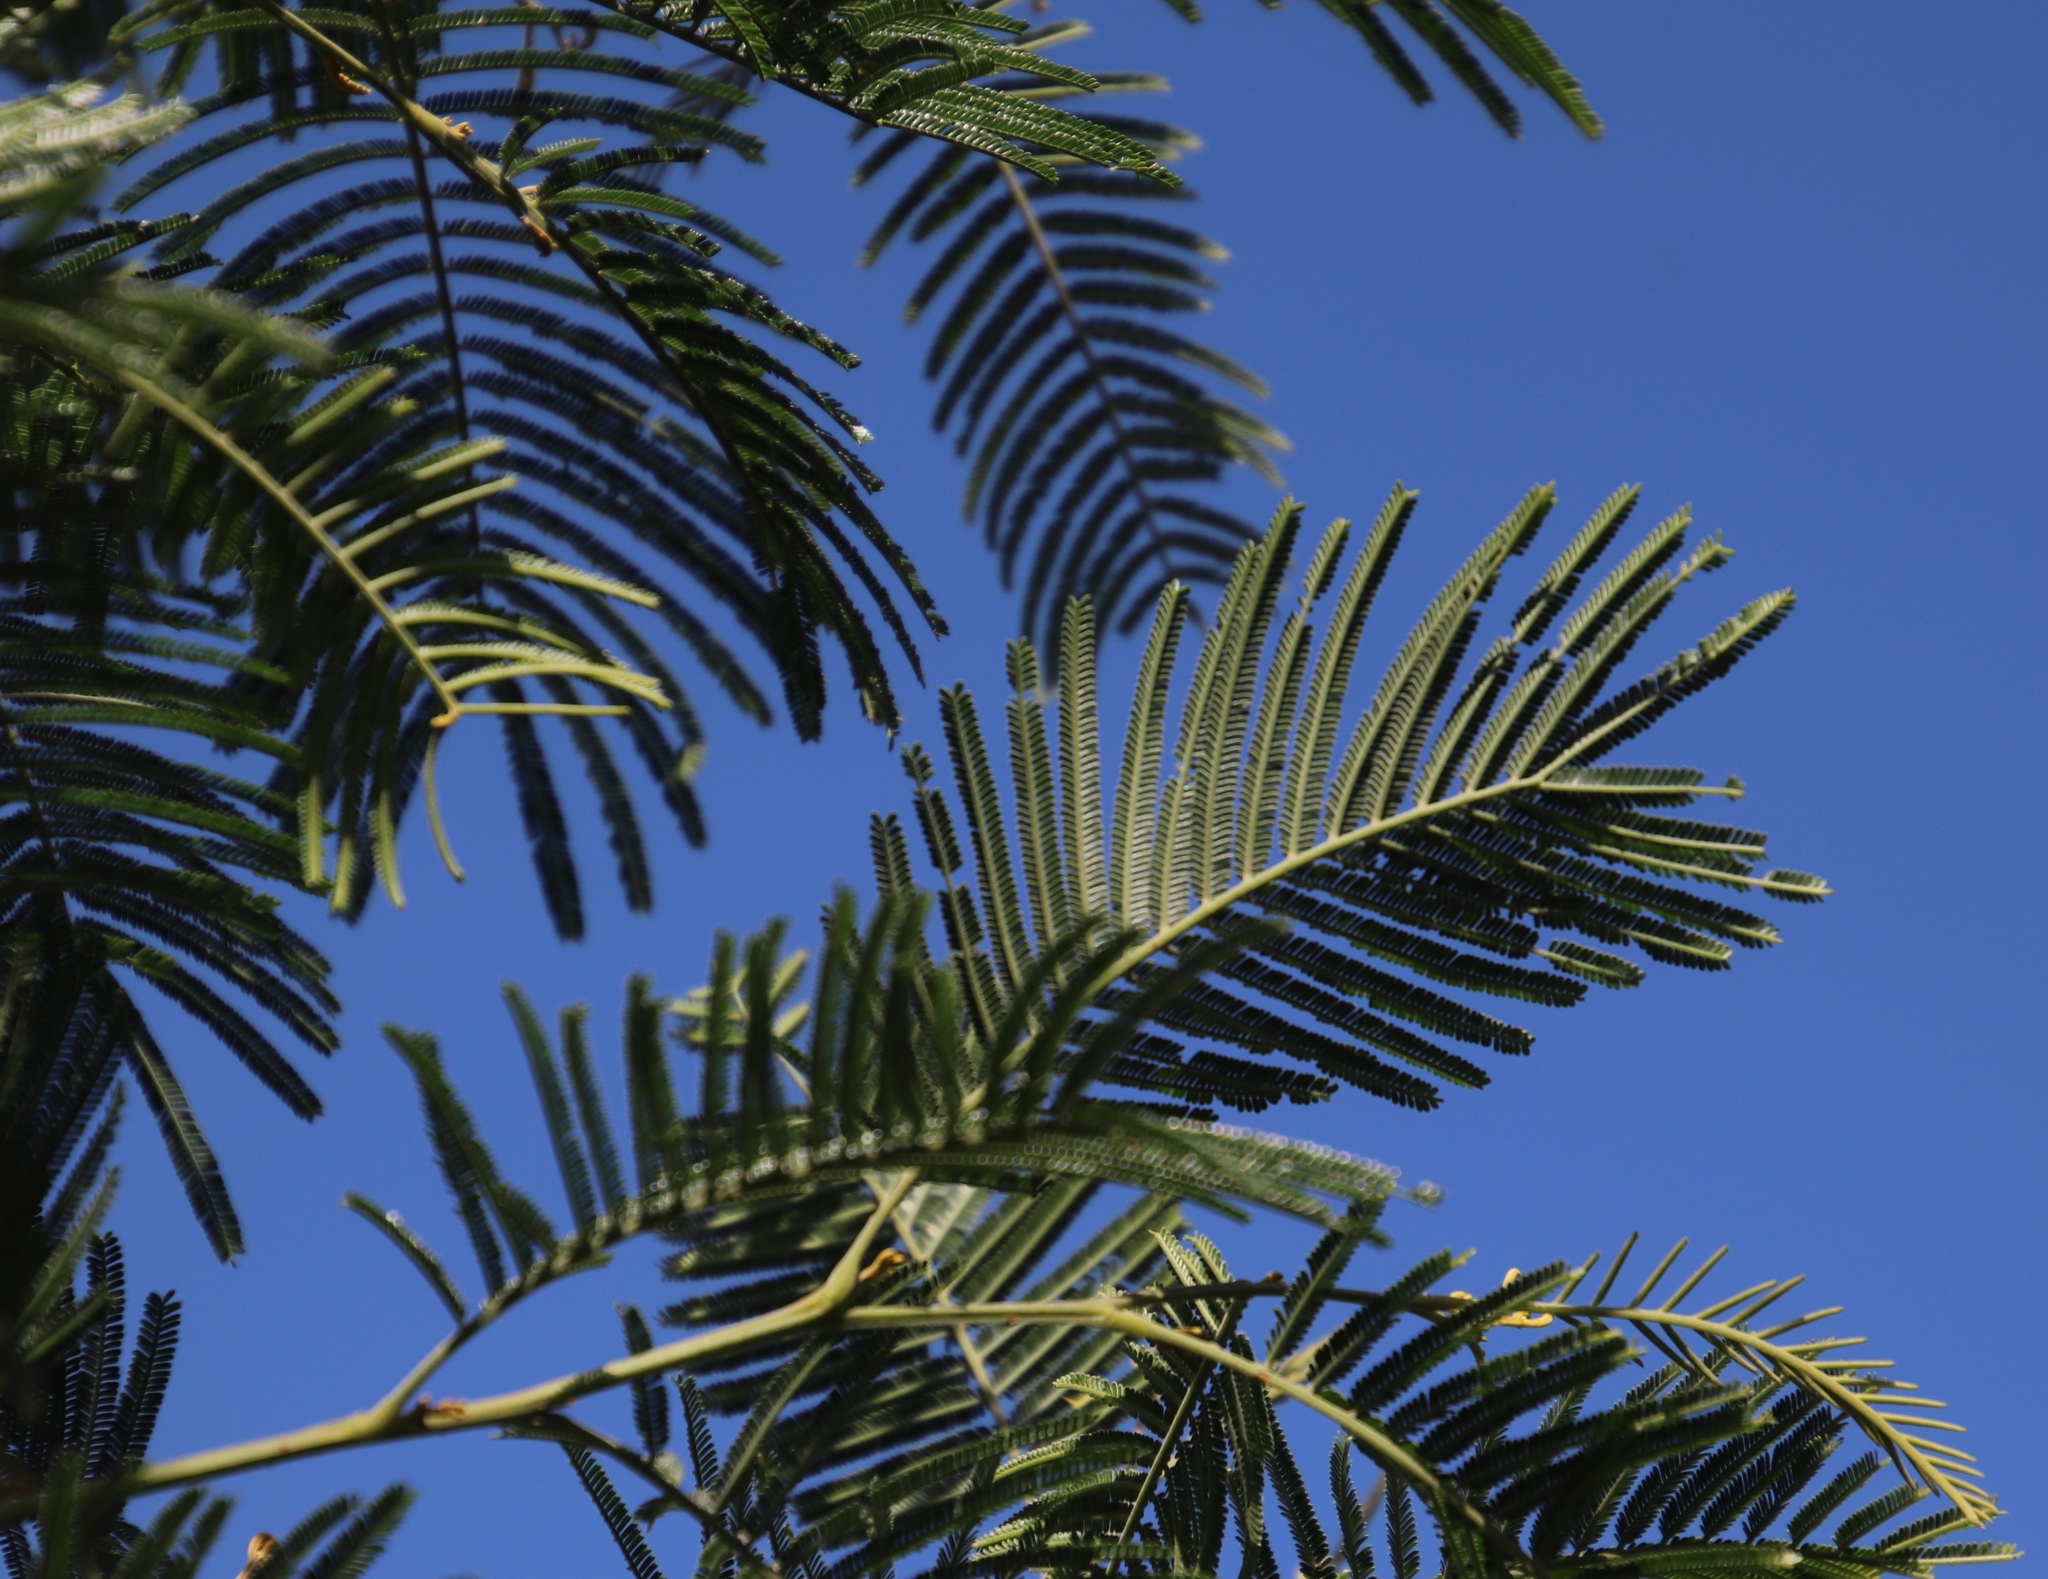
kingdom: Plantae
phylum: Tracheophyta
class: Magnoliopsida
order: Fabales
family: Fabaceae
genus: Acacia
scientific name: Acacia mearnsii
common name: Black wattle
